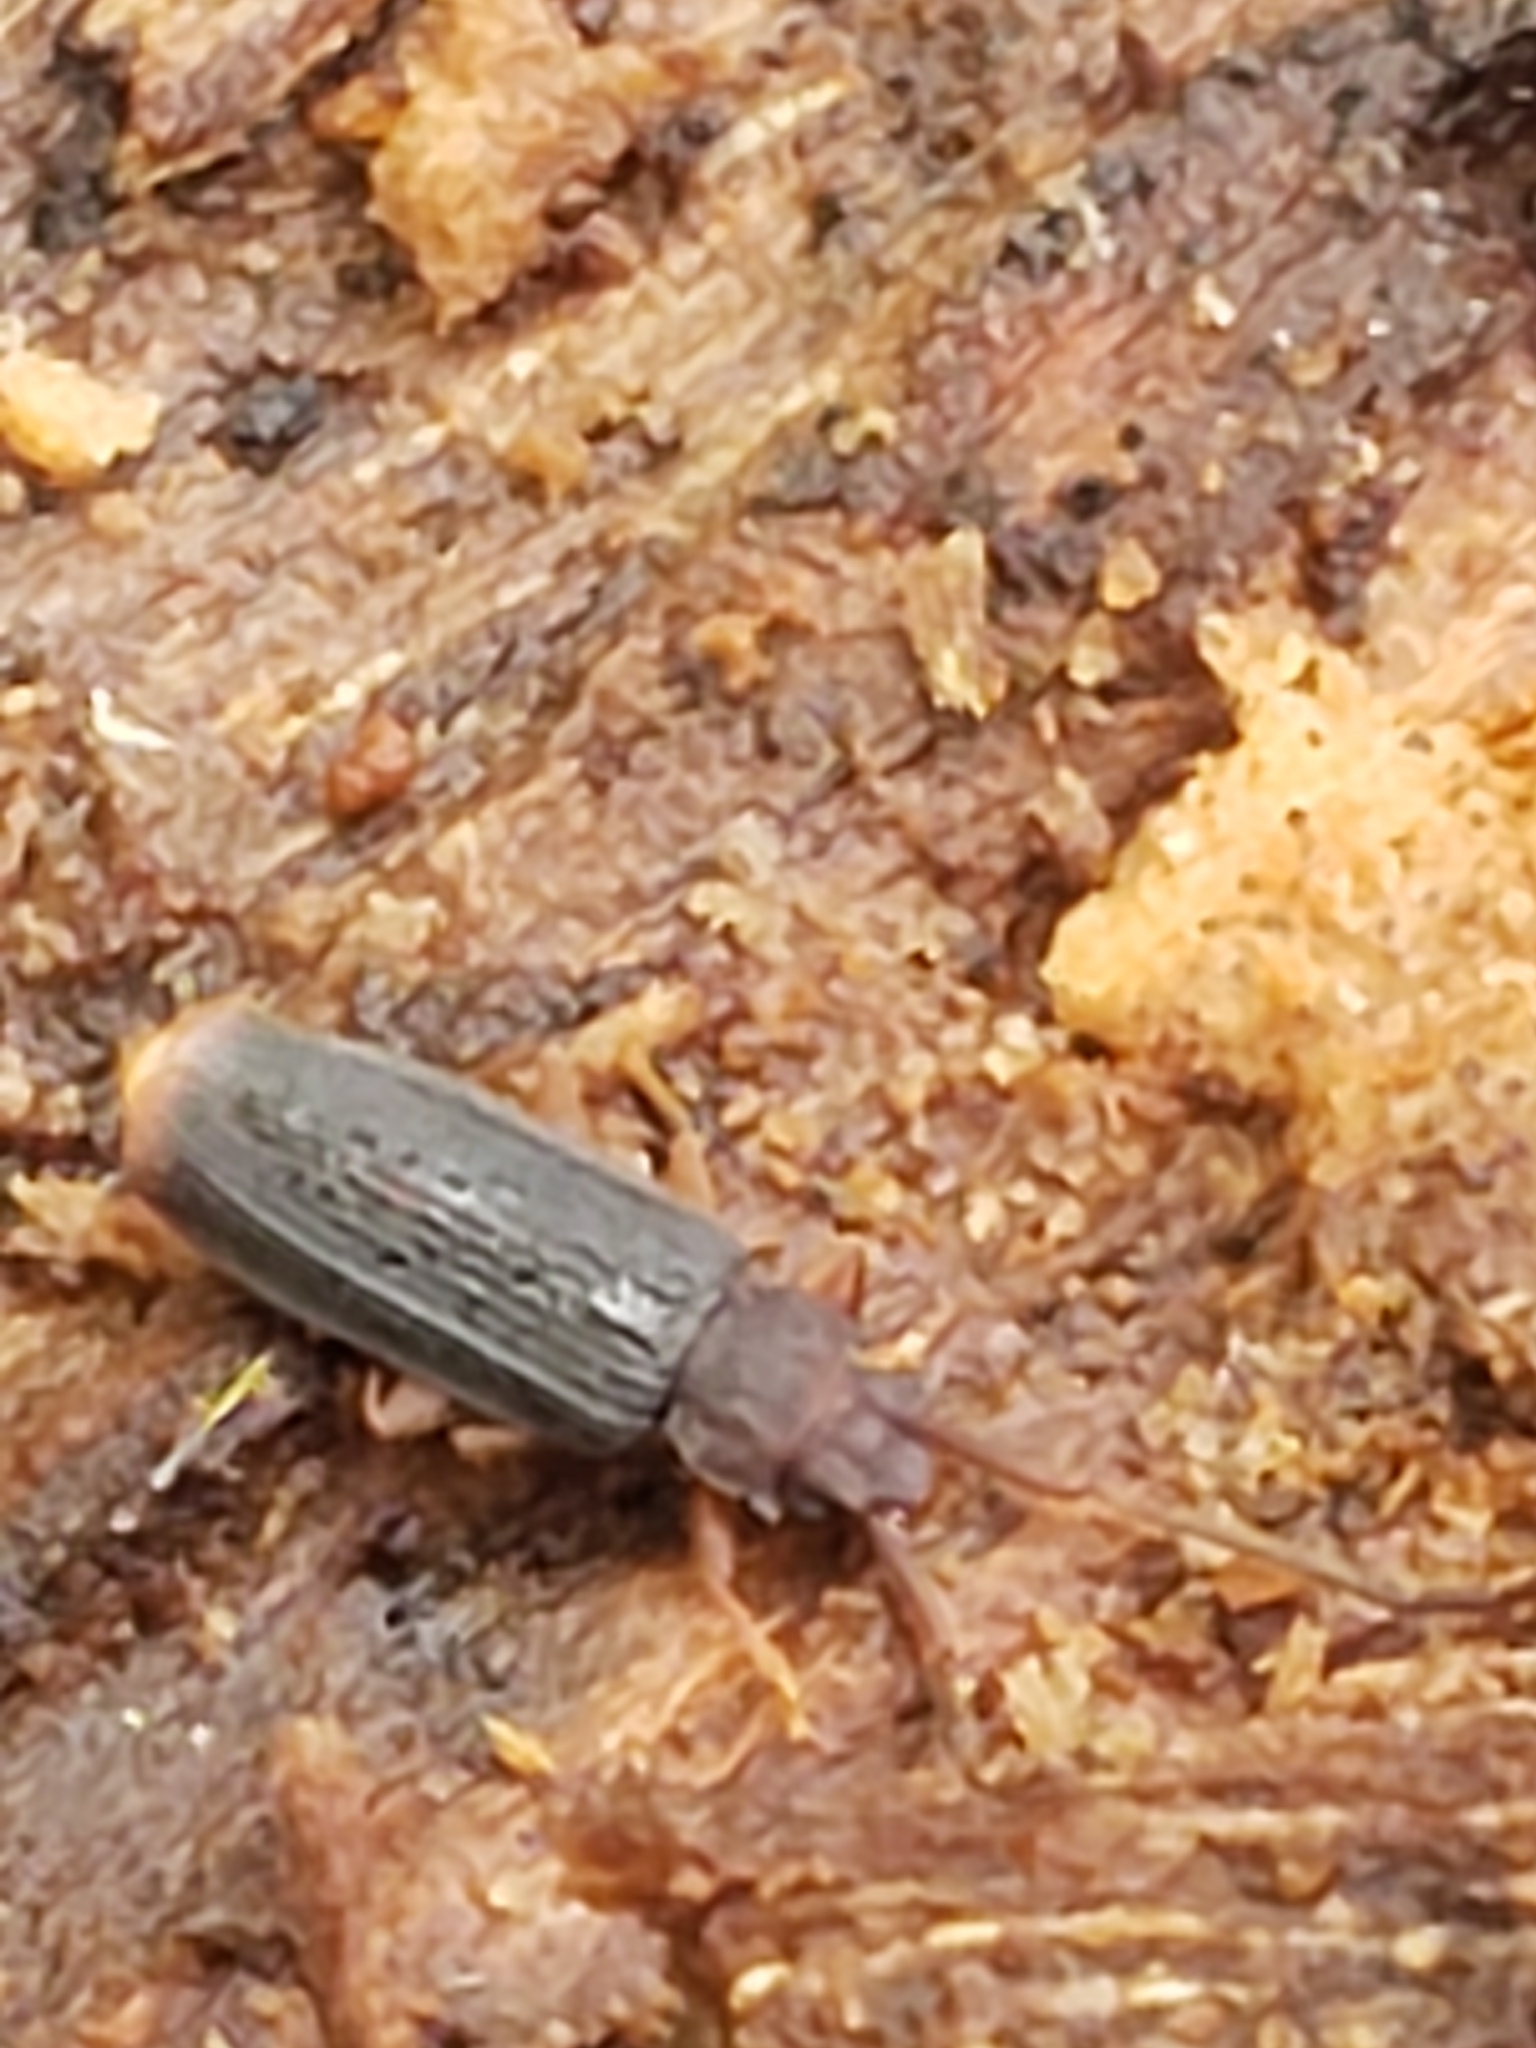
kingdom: Animalia
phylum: Arthropoda
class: Insecta
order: Coleoptera
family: Silvanidae
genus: Uleiota
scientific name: Uleiota dubia
